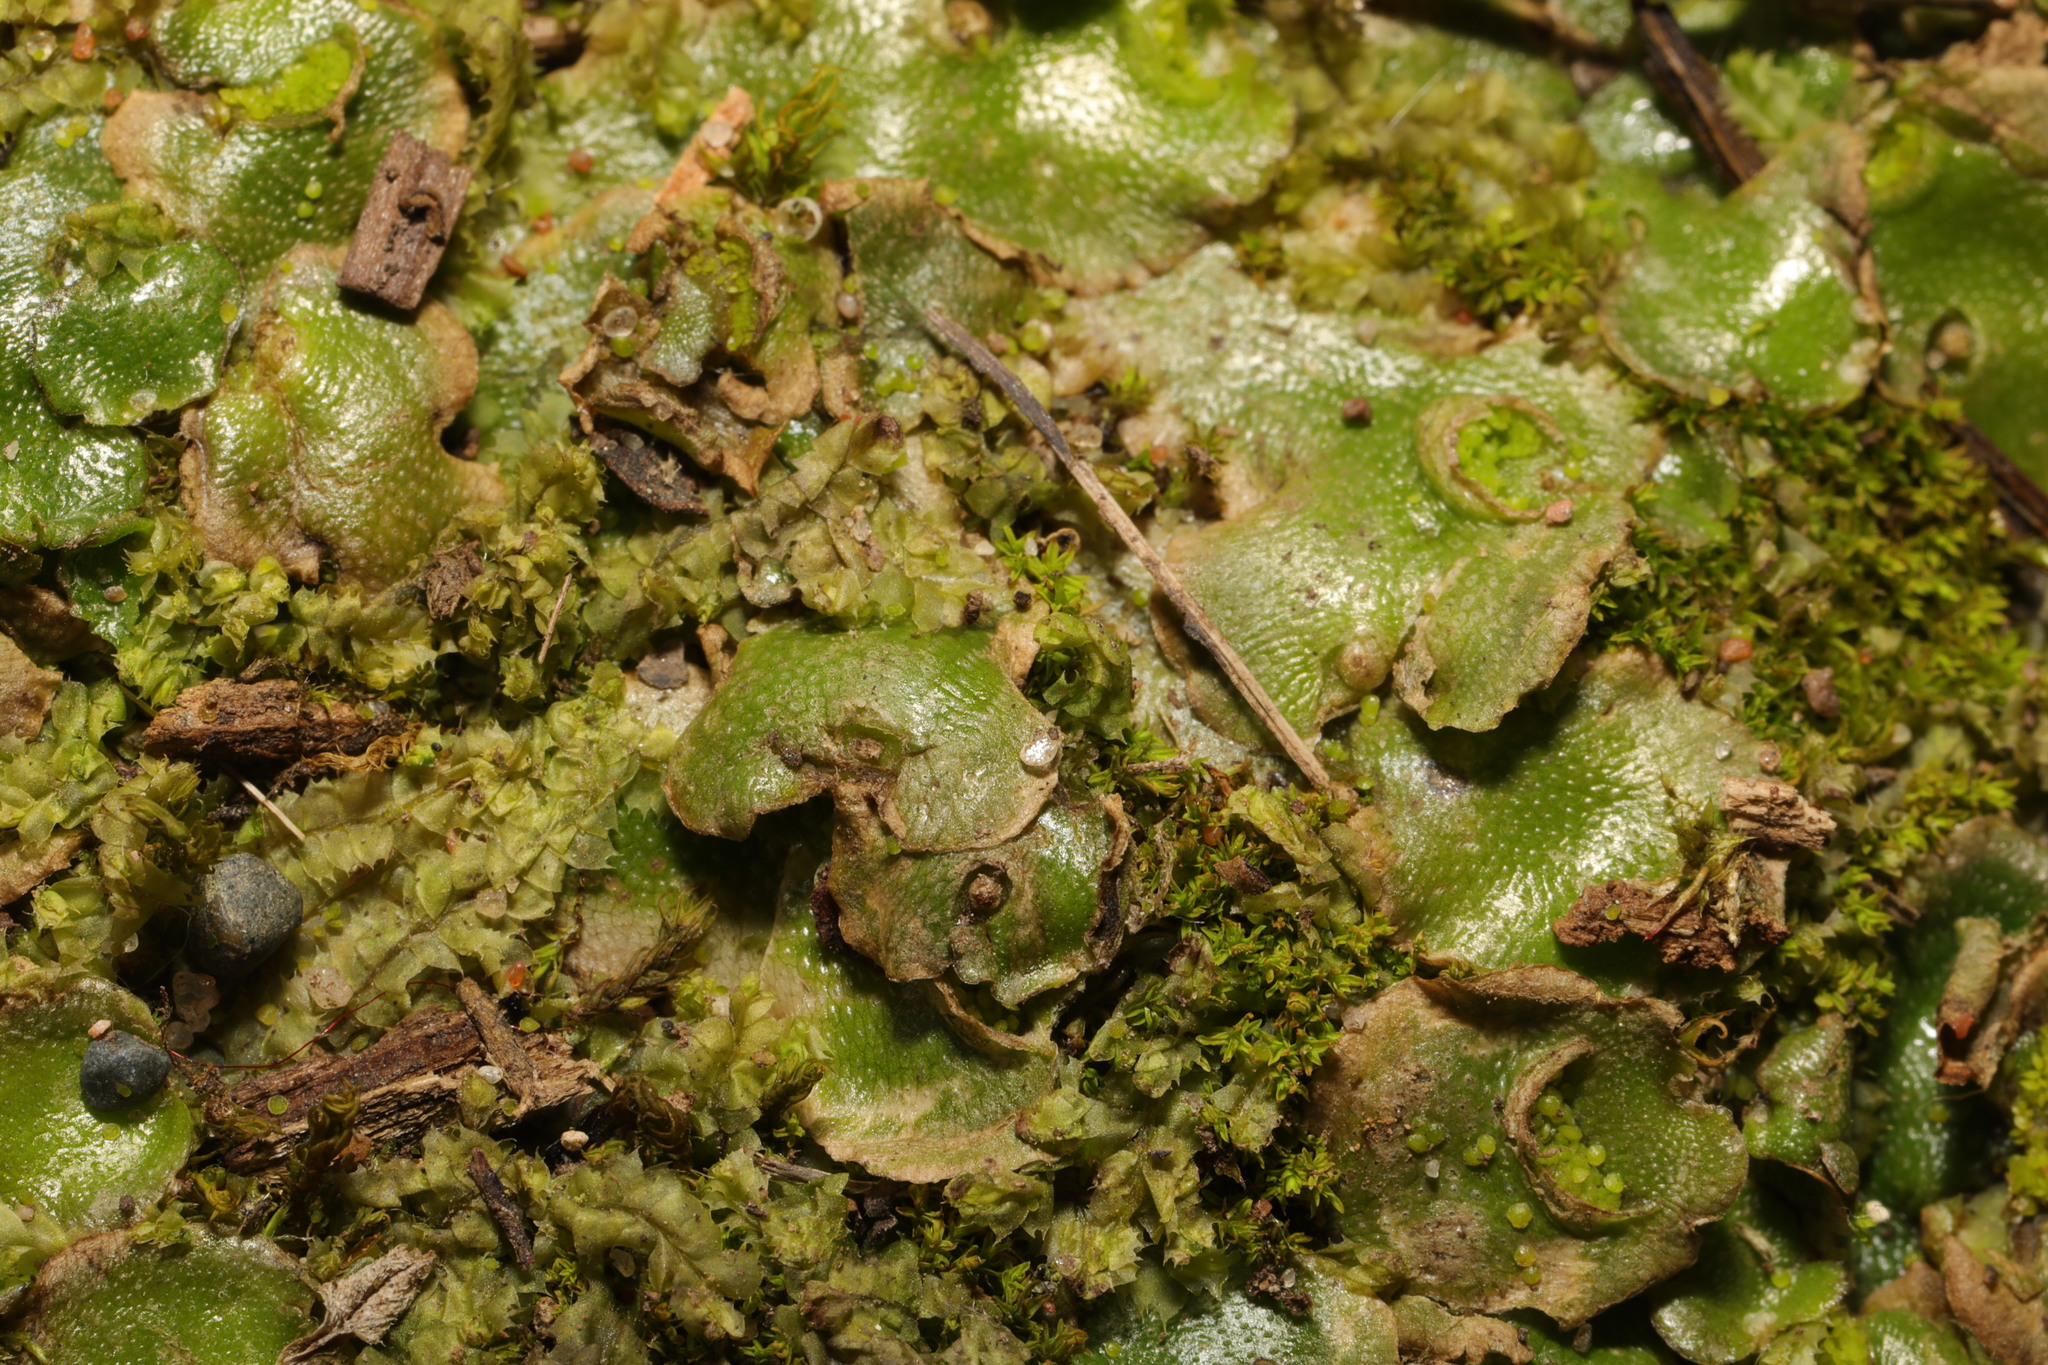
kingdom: Plantae
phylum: Marchantiophyta
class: Marchantiopsida
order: Lunulariales
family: Lunulariaceae
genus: Lunularia
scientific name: Lunularia cruciata
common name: Crescent-cup liverwort
